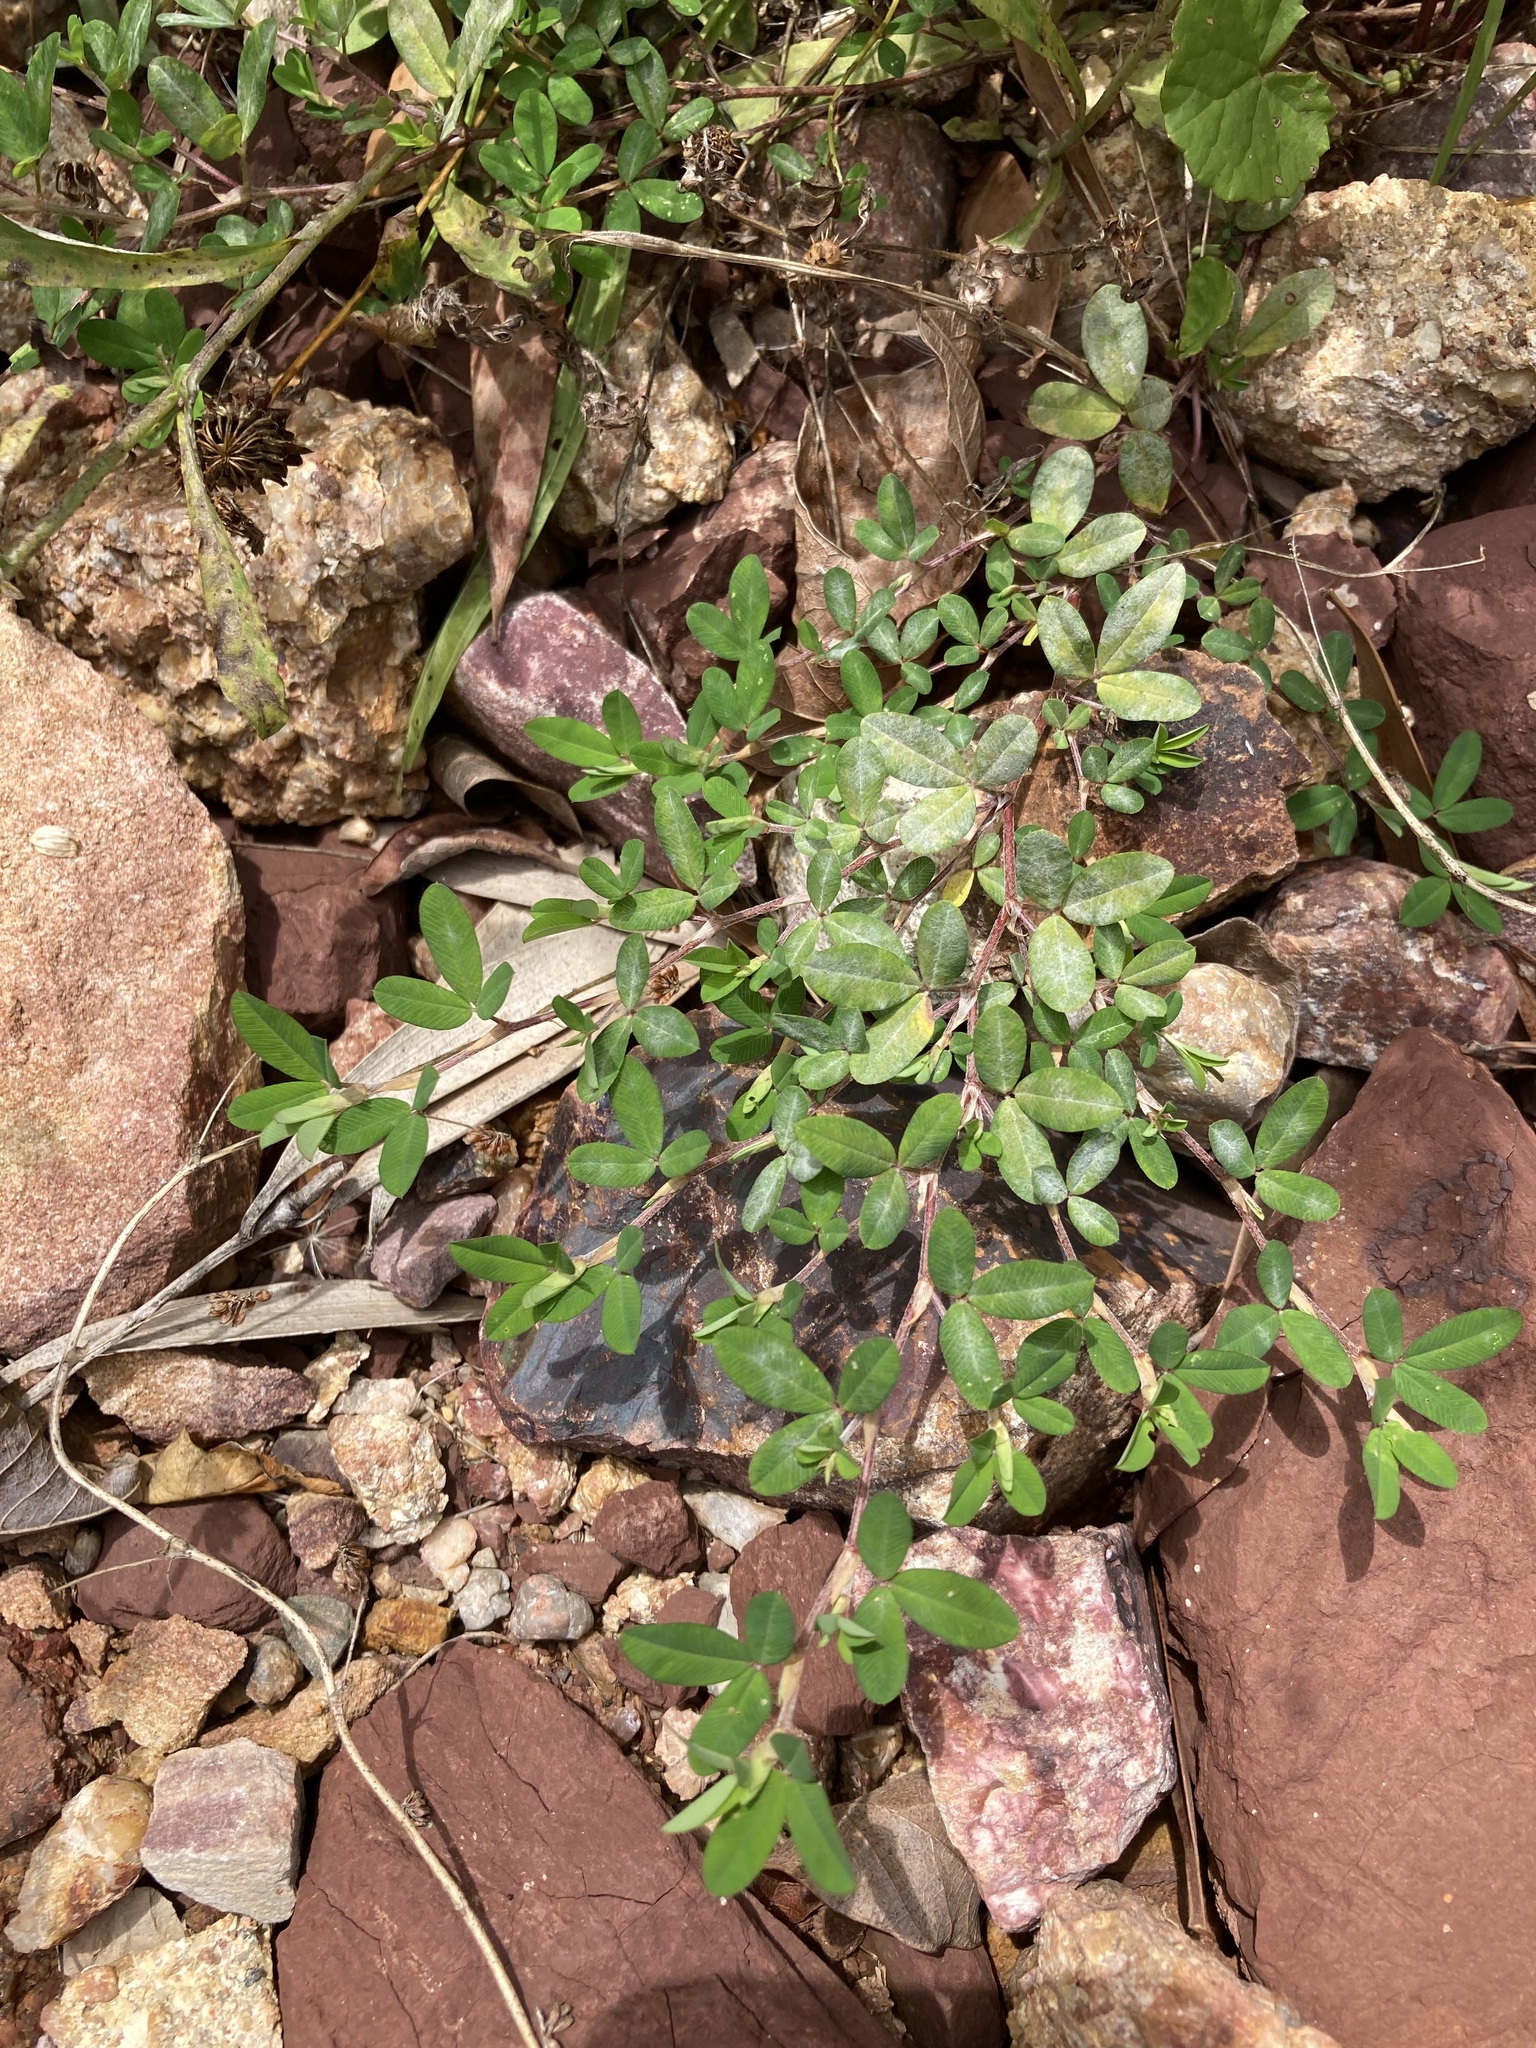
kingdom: Plantae
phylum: Tracheophyta
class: Magnoliopsida
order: Fabales
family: Fabaceae
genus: Kummerowia
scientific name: Kummerowia striata
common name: Japanese clover
